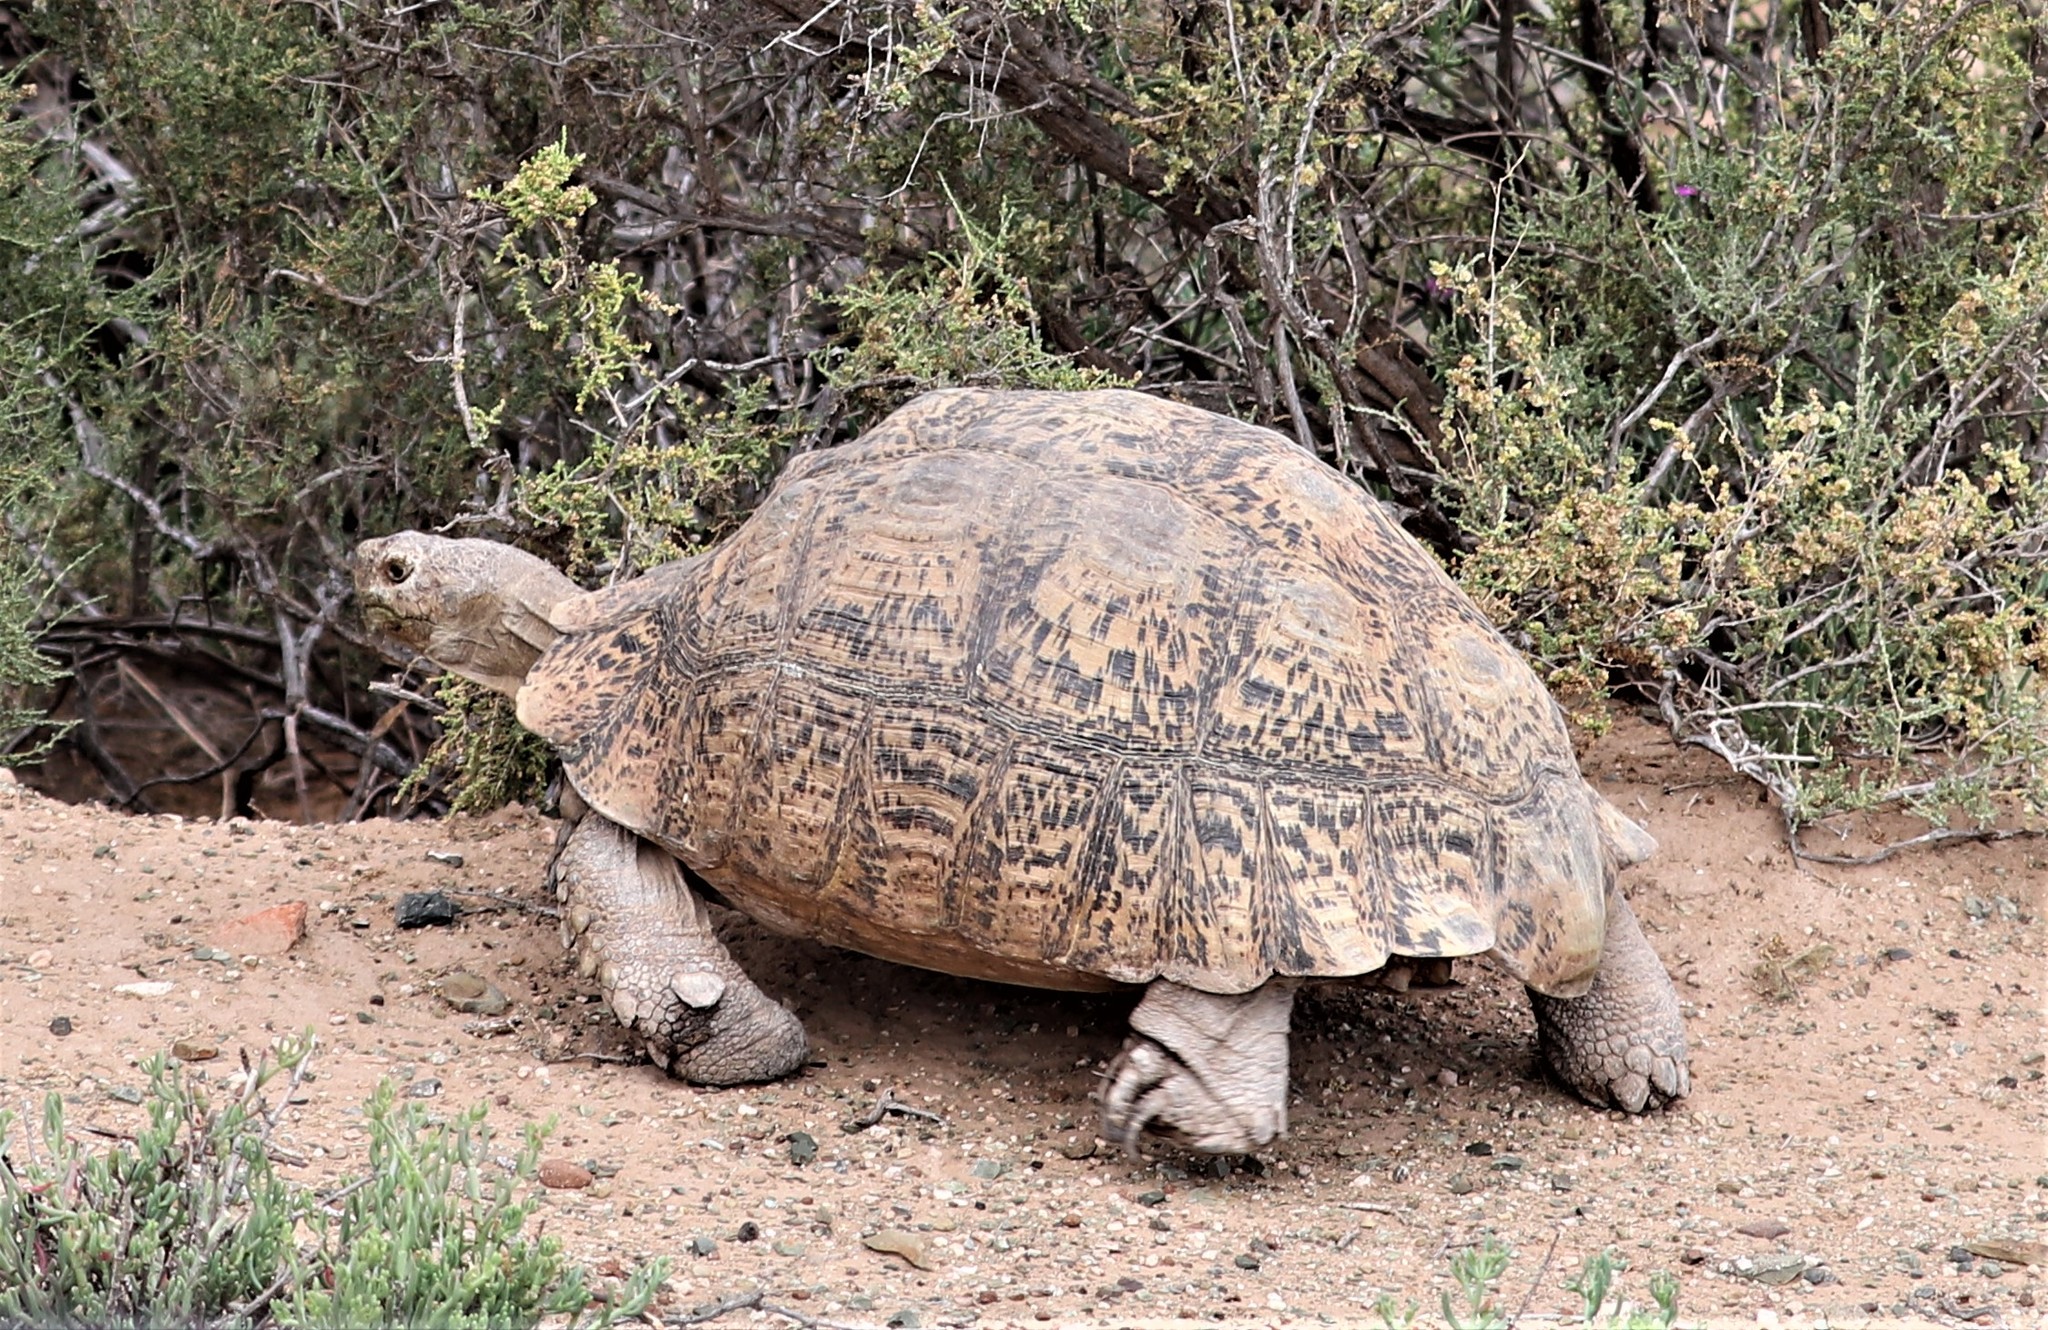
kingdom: Animalia
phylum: Chordata
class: Testudines
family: Testudinidae
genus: Stigmochelys
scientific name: Stigmochelys pardalis
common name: Leopard tortoise
